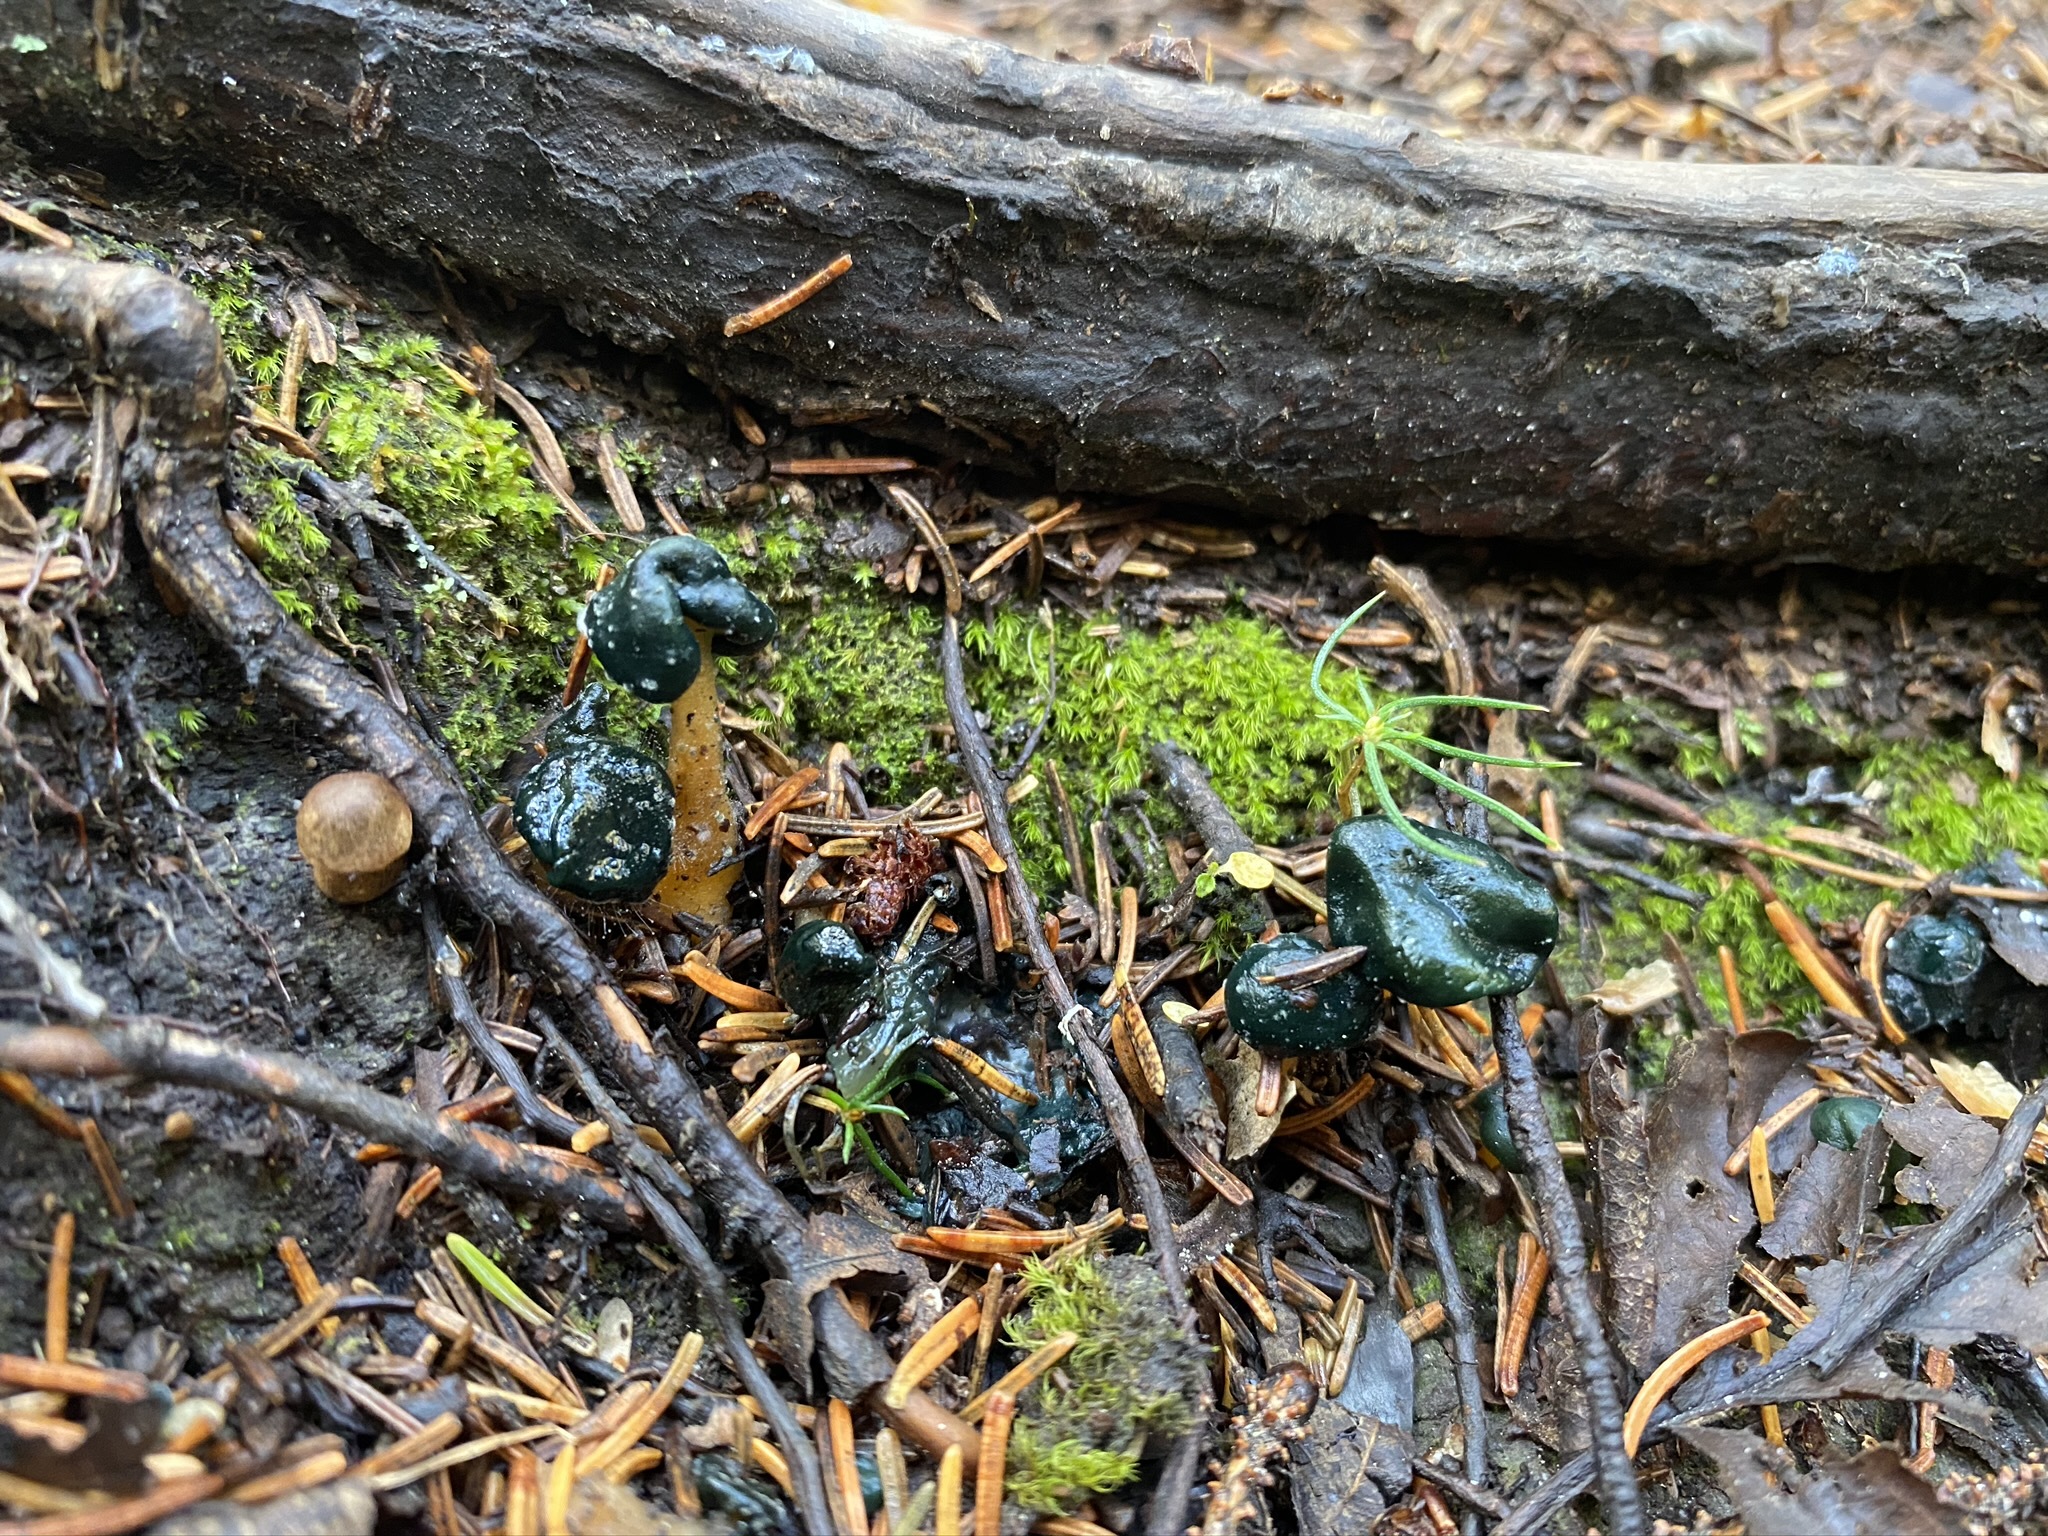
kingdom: Fungi
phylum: Ascomycota
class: Leotiomycetes
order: Leotiales
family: Leotiaceae
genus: Leotia
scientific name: Leotia lubrica
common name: Jellybaby
